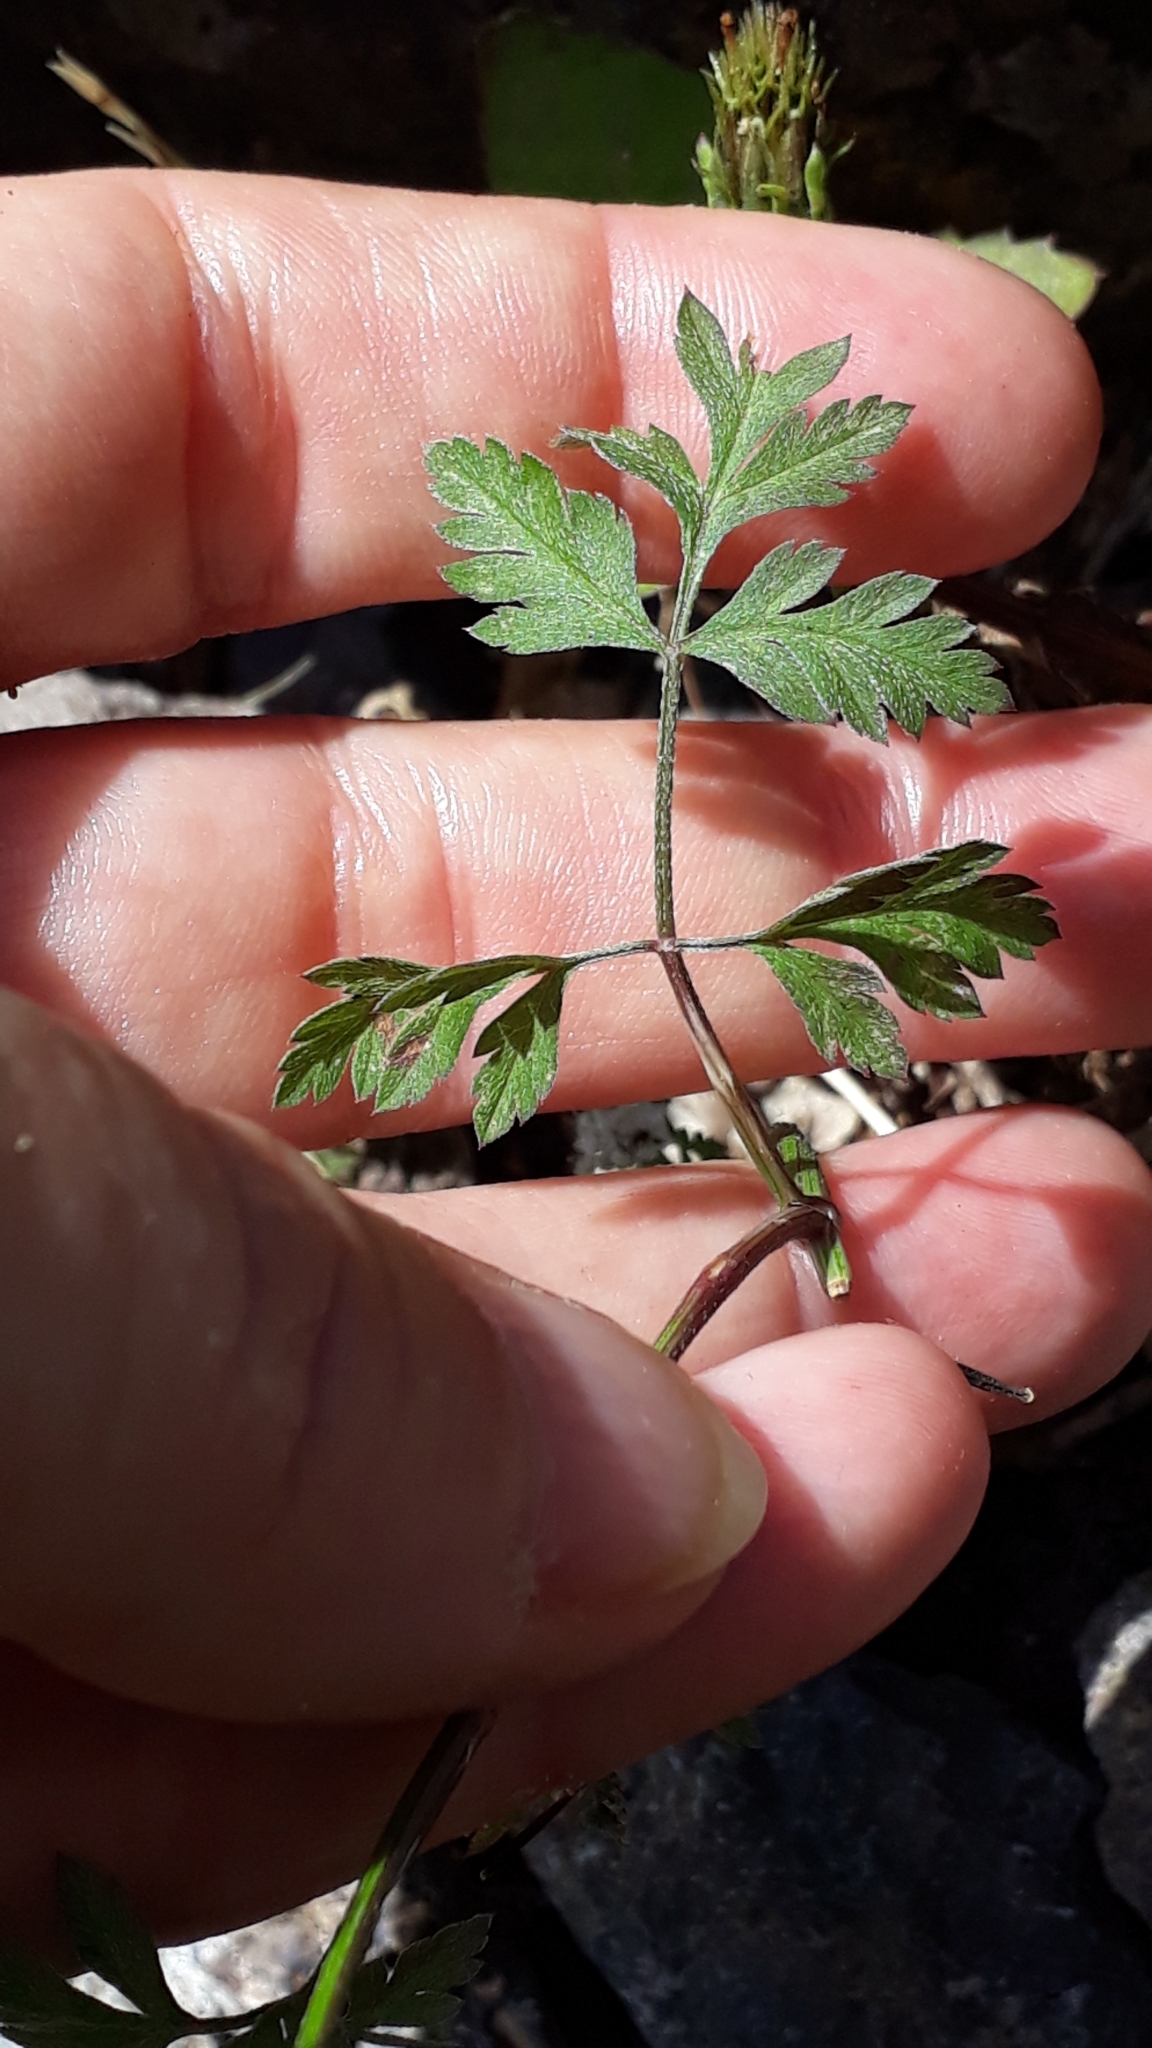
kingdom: Plantae
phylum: Tracheophyta
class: Magnoliopsida
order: Apiales
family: Apiaceae
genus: Torilis
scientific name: Torilis arvensis
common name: Spreading hedge-parsley
